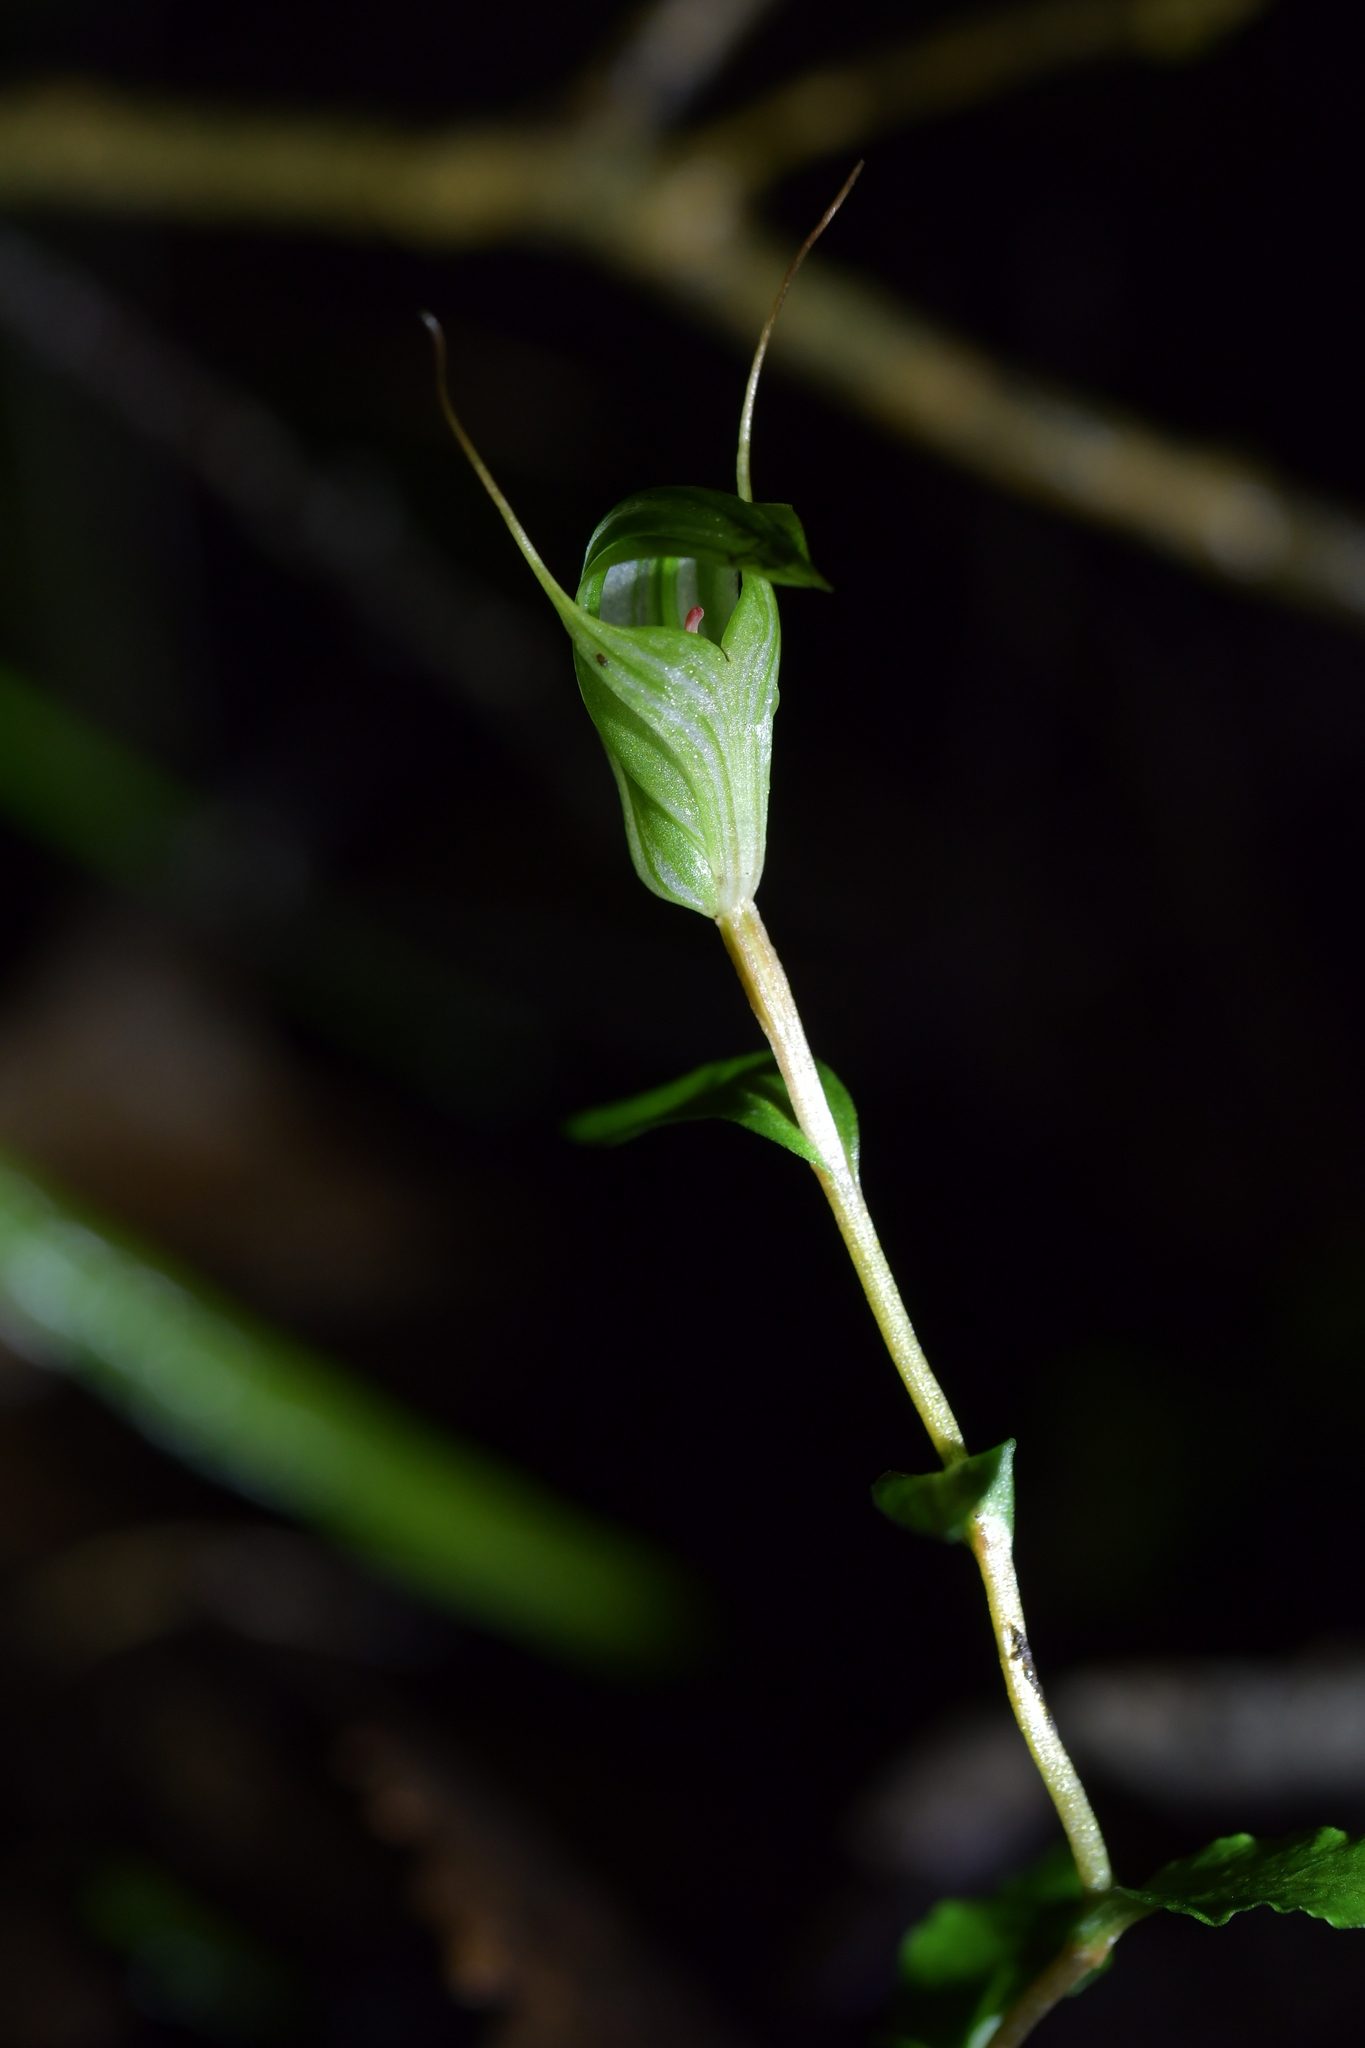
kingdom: Plantae
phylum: Tracheophyta
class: Liliopsida
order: Asparagales
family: Orchidaceae
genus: Pterostylis
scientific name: Pterostylis alobula
